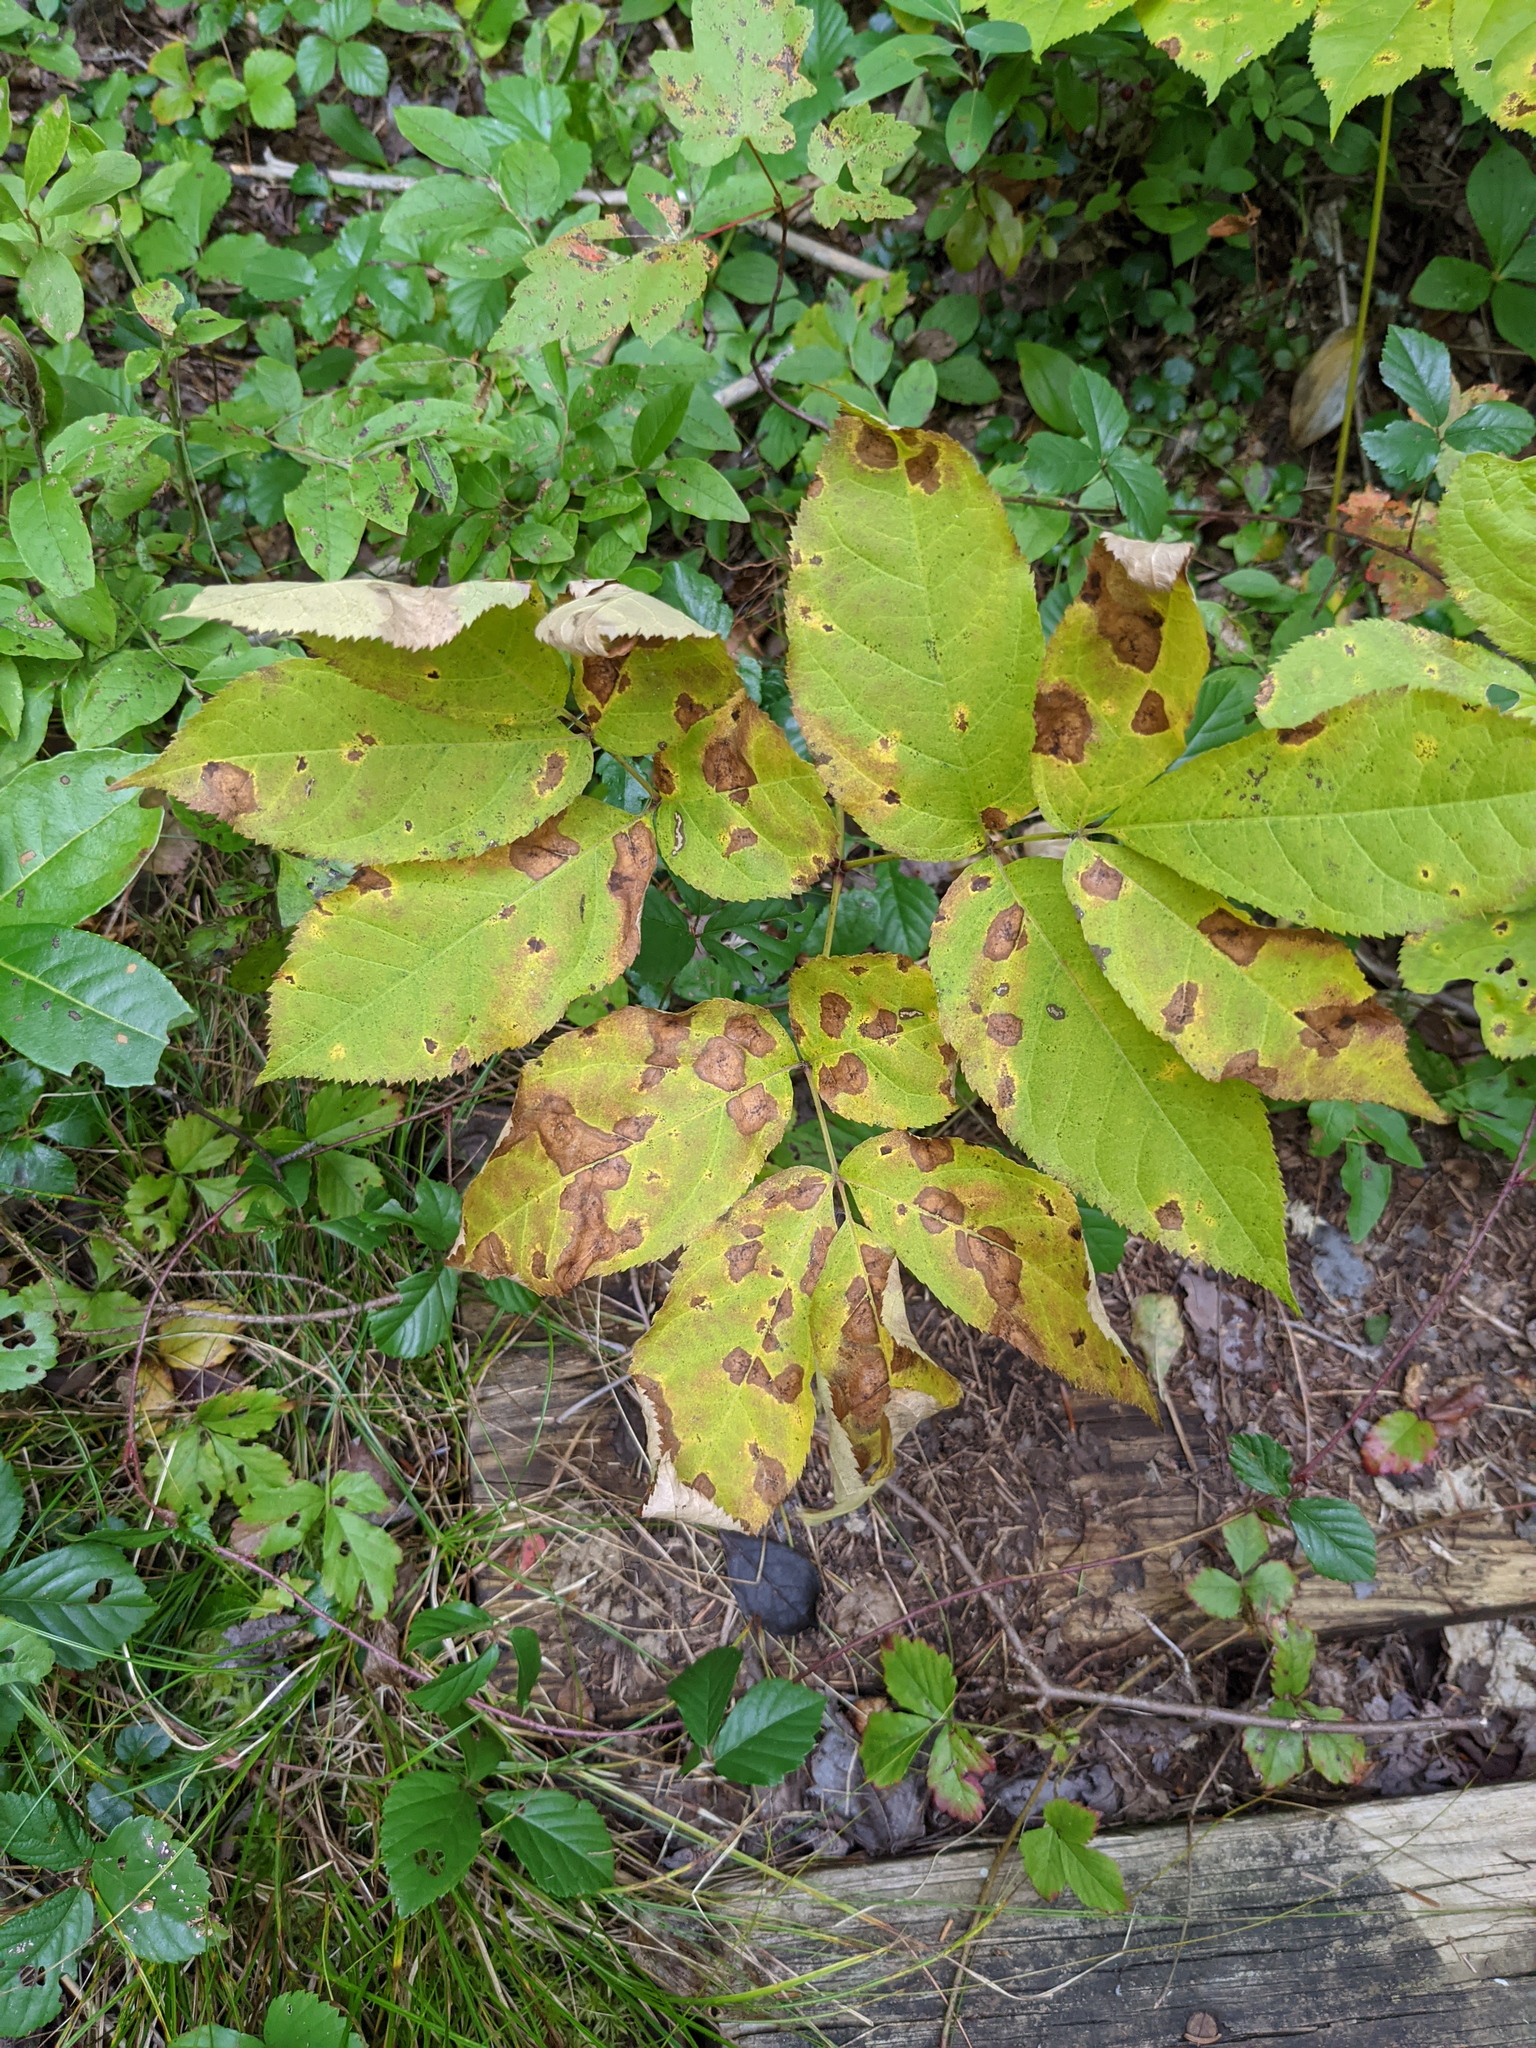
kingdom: Plantae
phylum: Tracheophyta
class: Magnoliopsida
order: Apiales
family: Araliaceae
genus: Aralia
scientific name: Aralia nudicaulis
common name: Wild sarsaparilla
